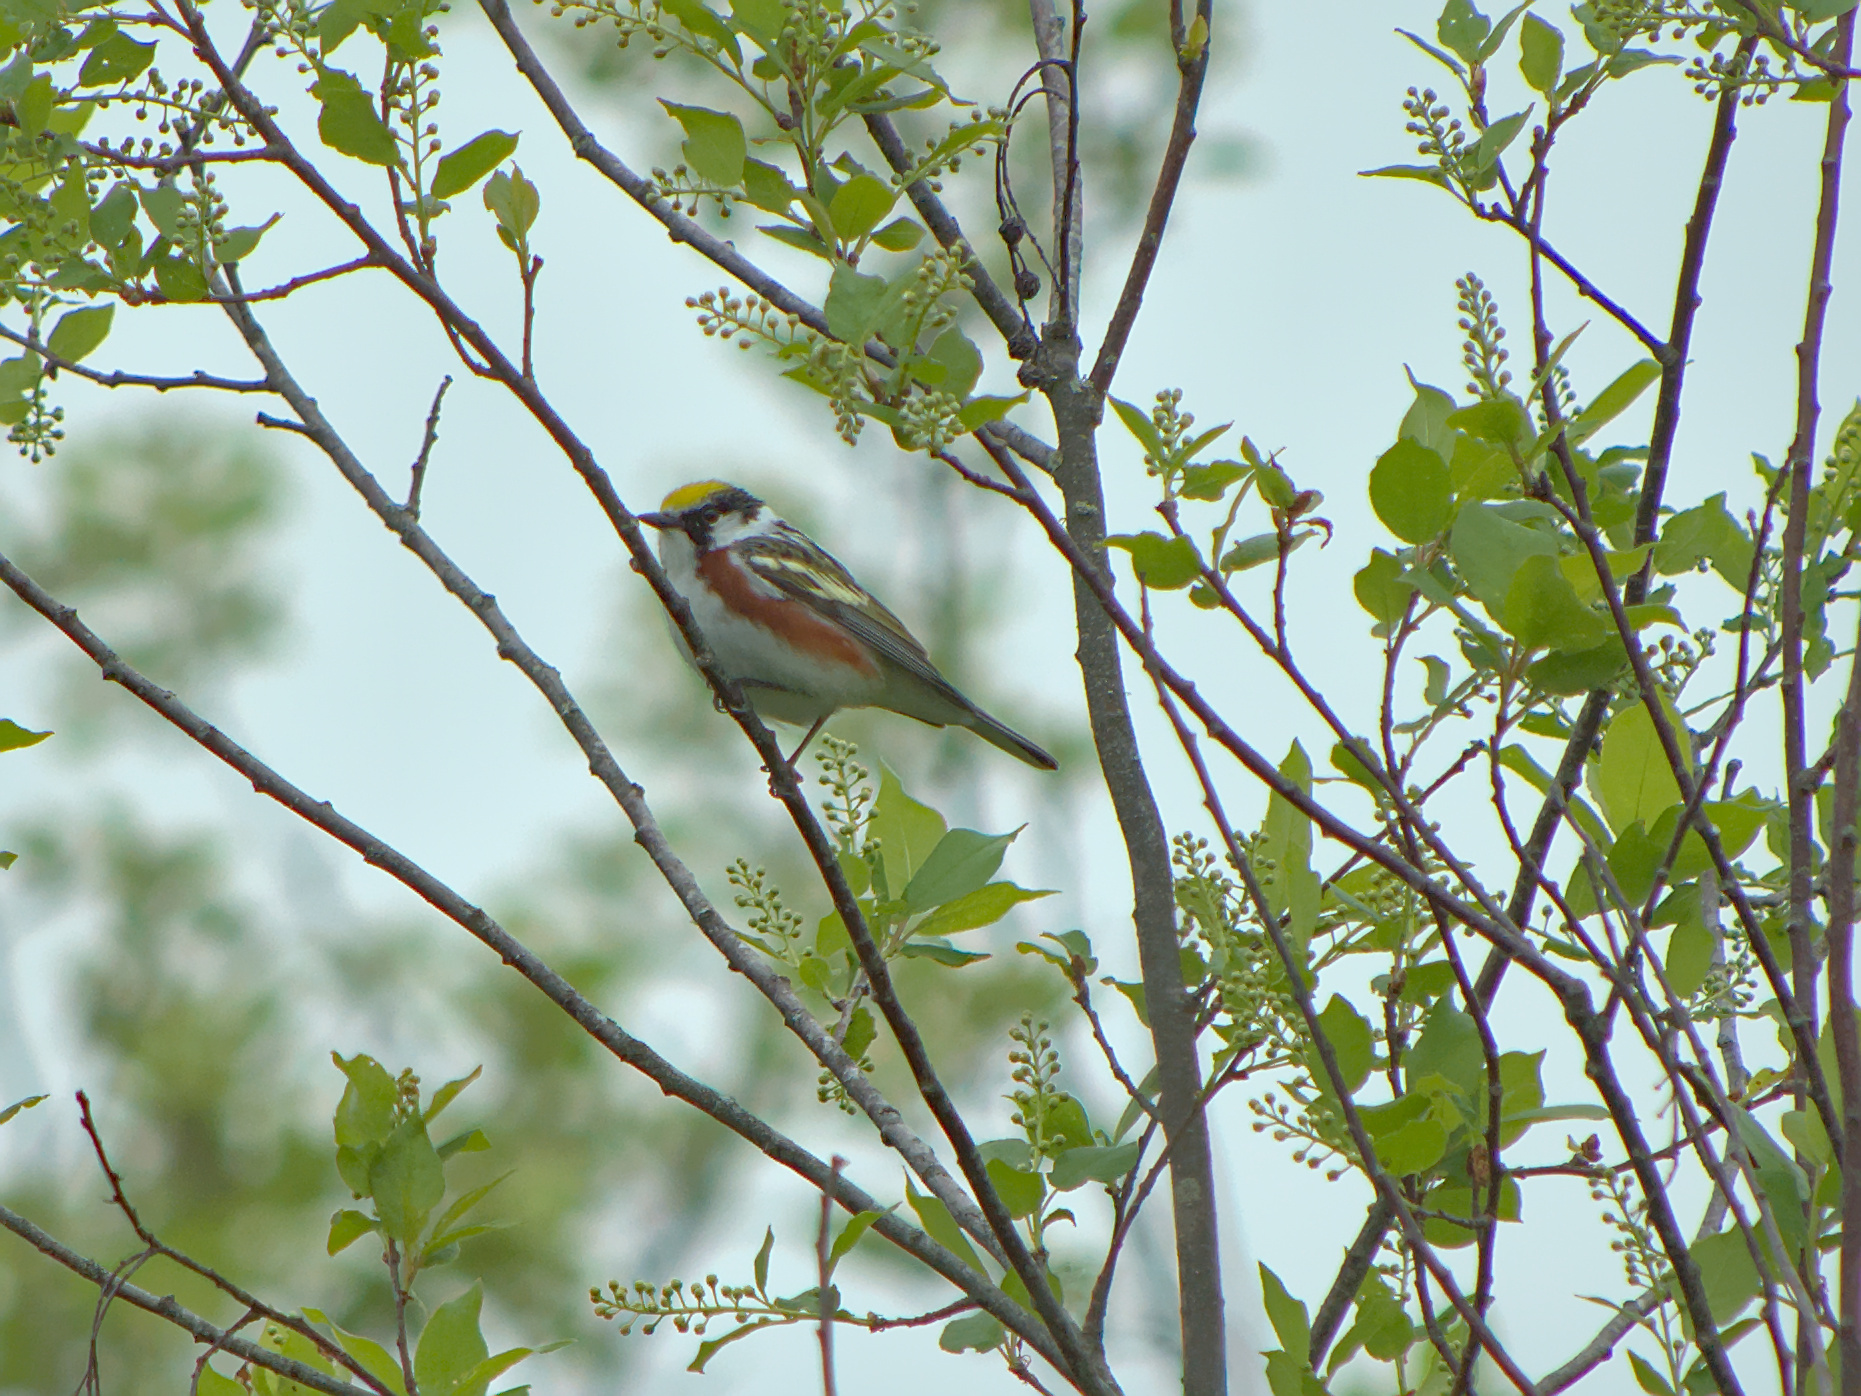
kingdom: Animalia
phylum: Chordata
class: Aves
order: Passeriformes
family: Parulidae
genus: Setophaga
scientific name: Setophaga pensylvanica
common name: Chestnut-sided warbler
